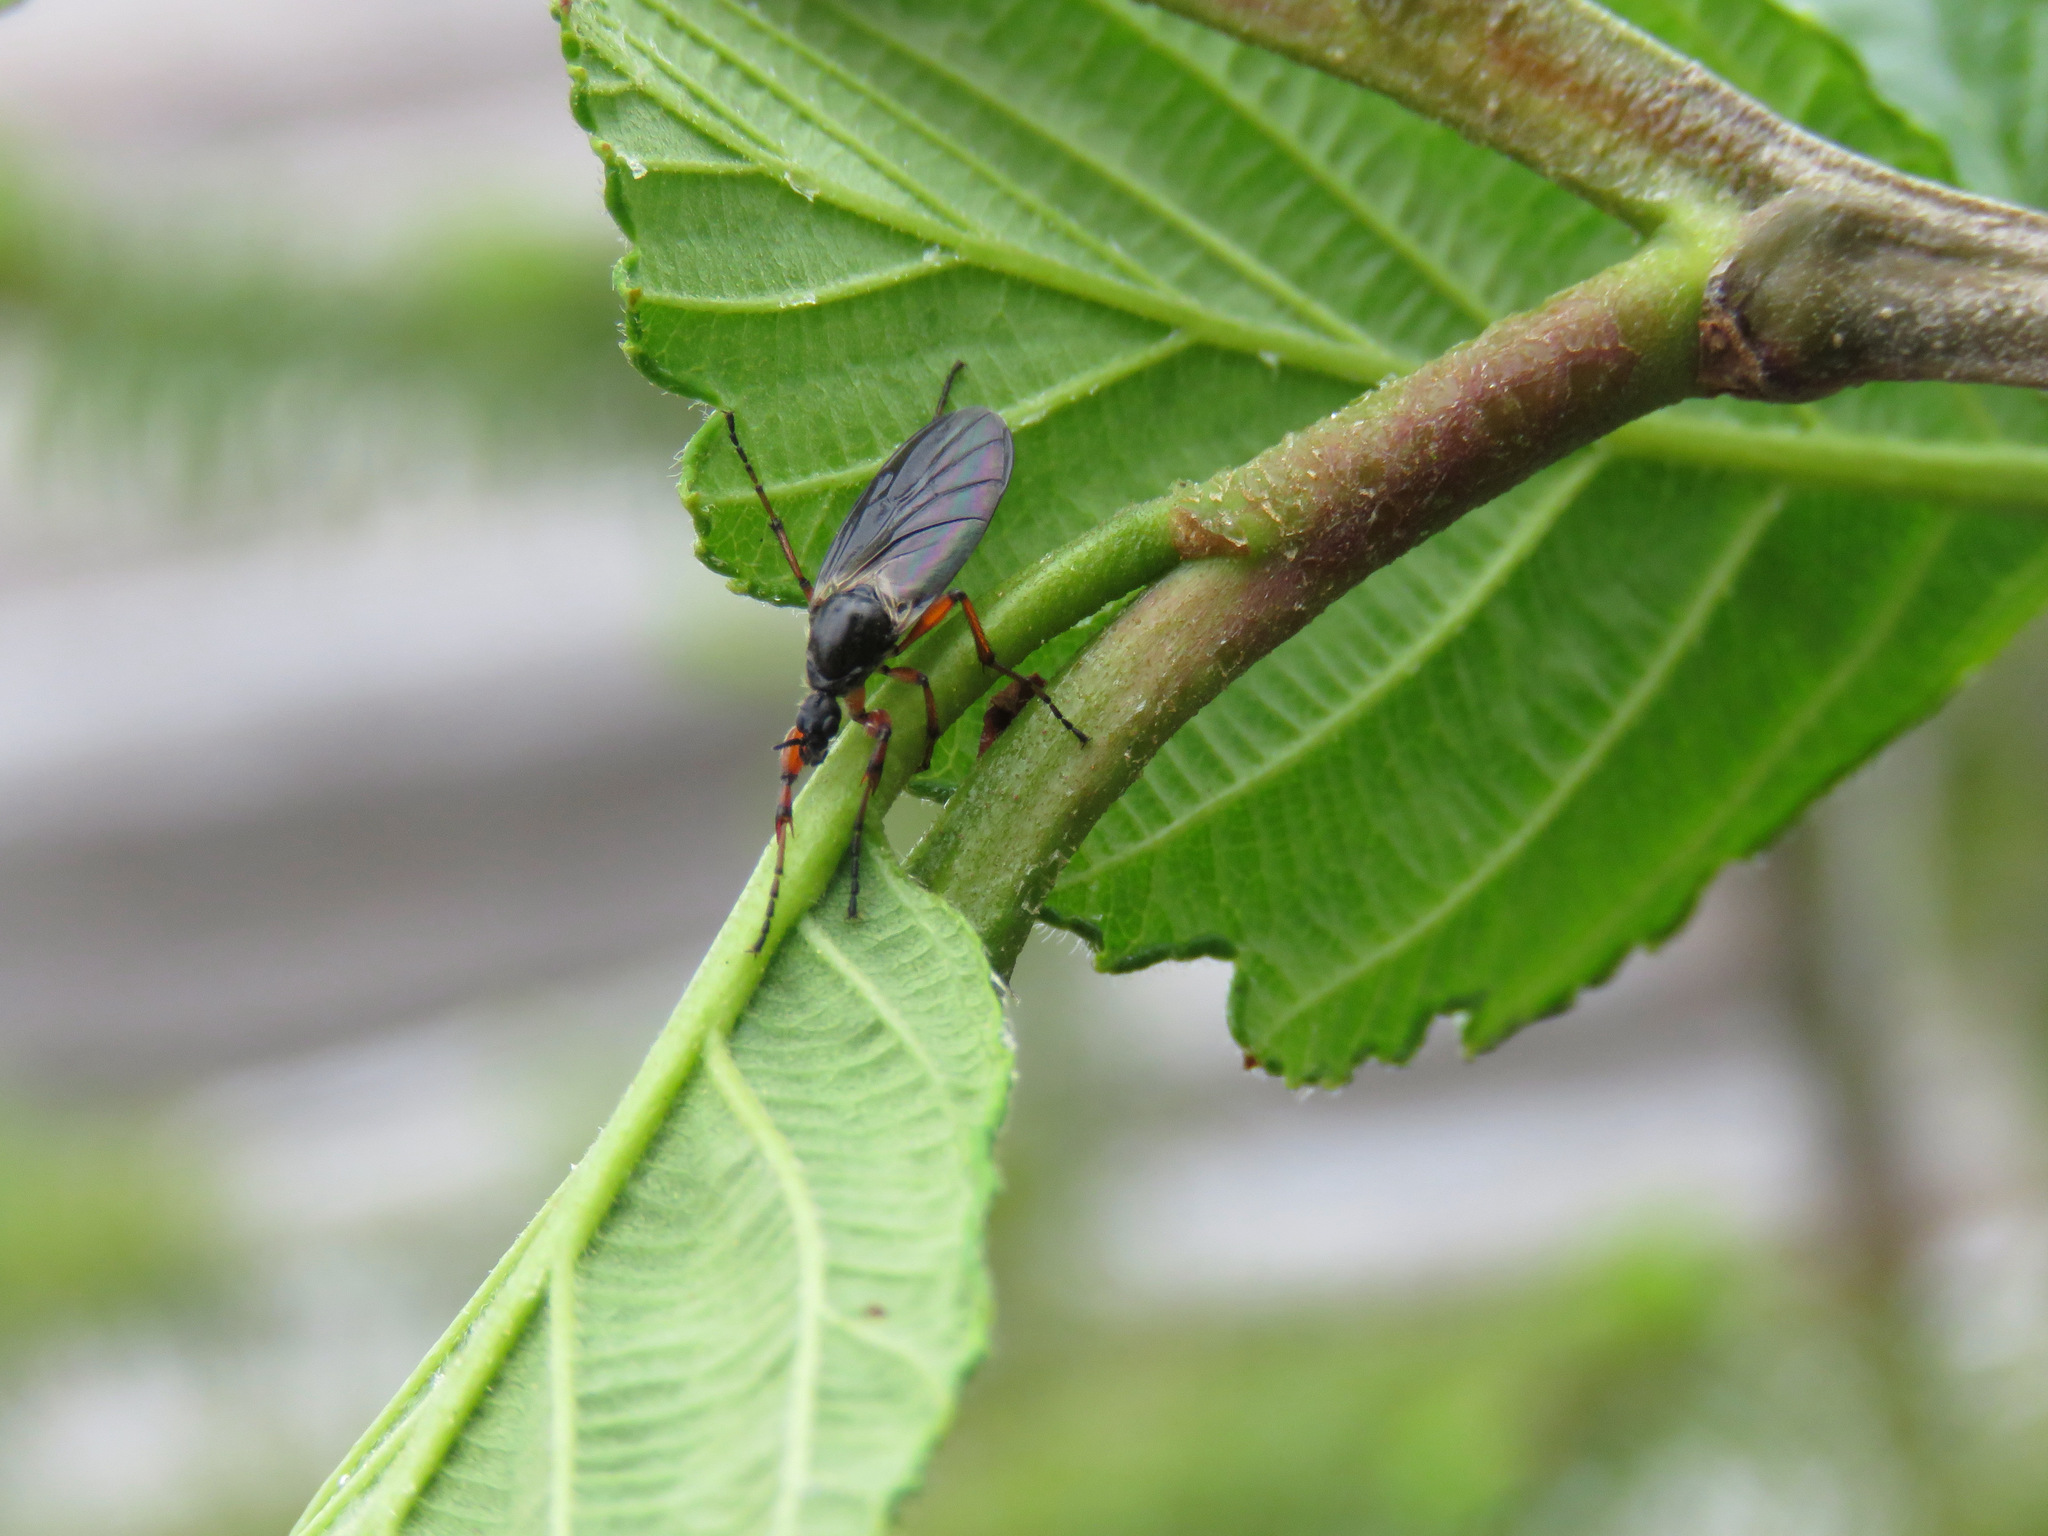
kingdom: Animalia
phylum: Arthropoda
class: Insecta
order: Diptera
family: Bibionidae
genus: Bibio
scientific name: Bibio
